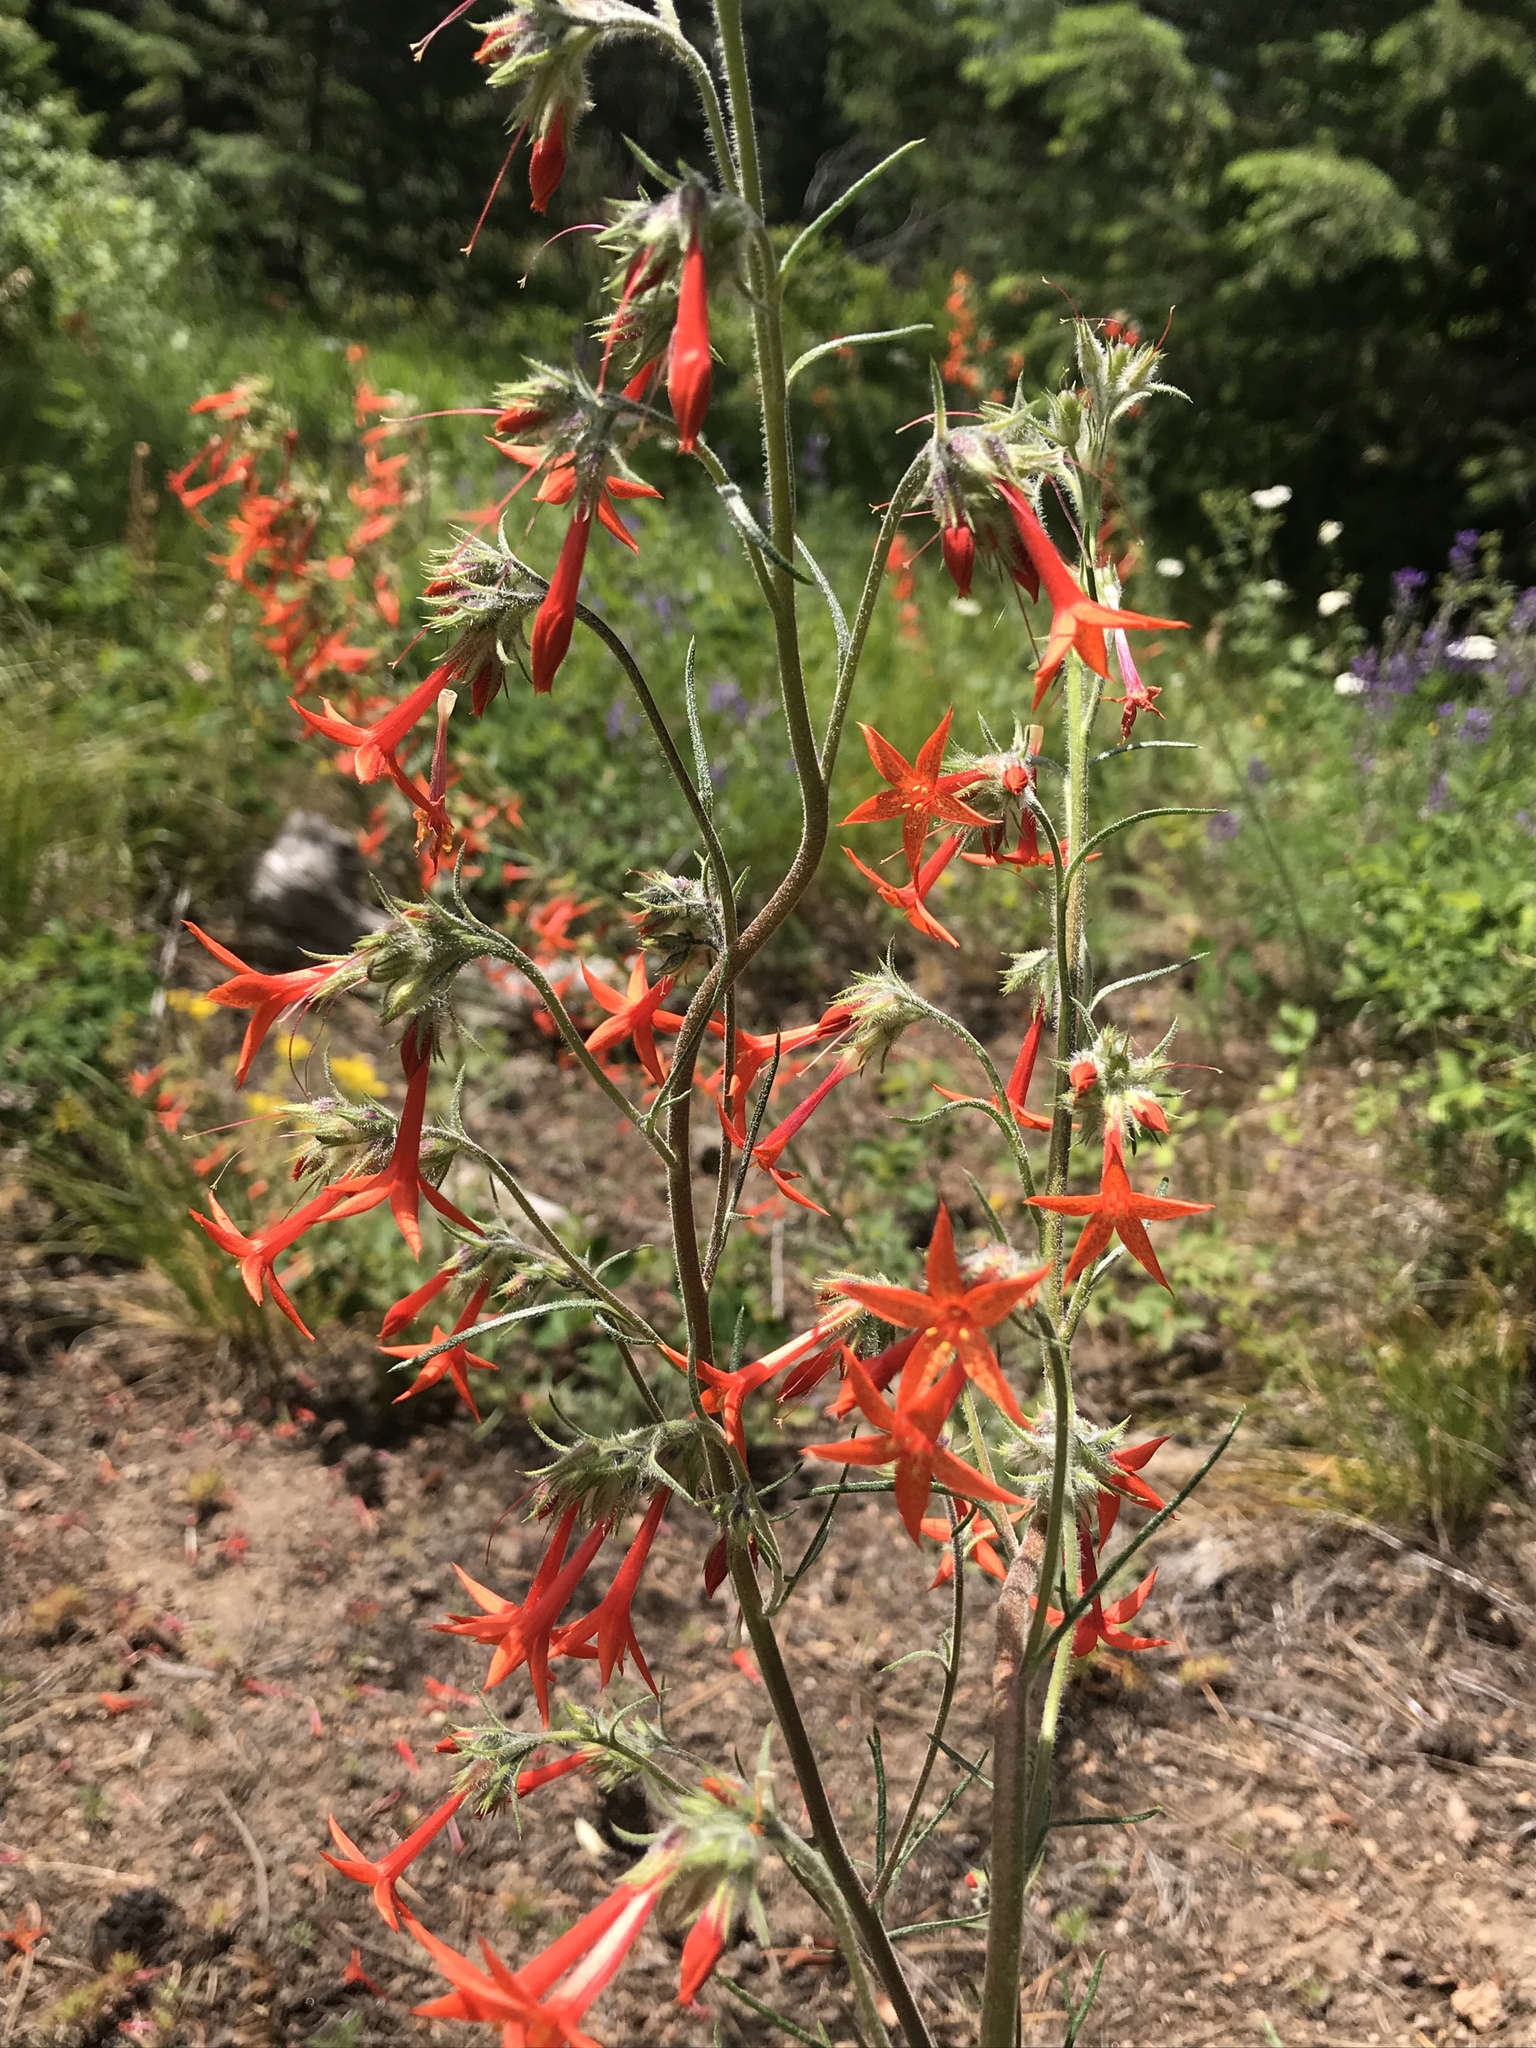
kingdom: Plantae
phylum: Tracheophyta
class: Magnoliopsida
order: Ericales
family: Polemoniaceae
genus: Ipomopsis
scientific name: Ipomopsis aggregata
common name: Scarlet gilia
